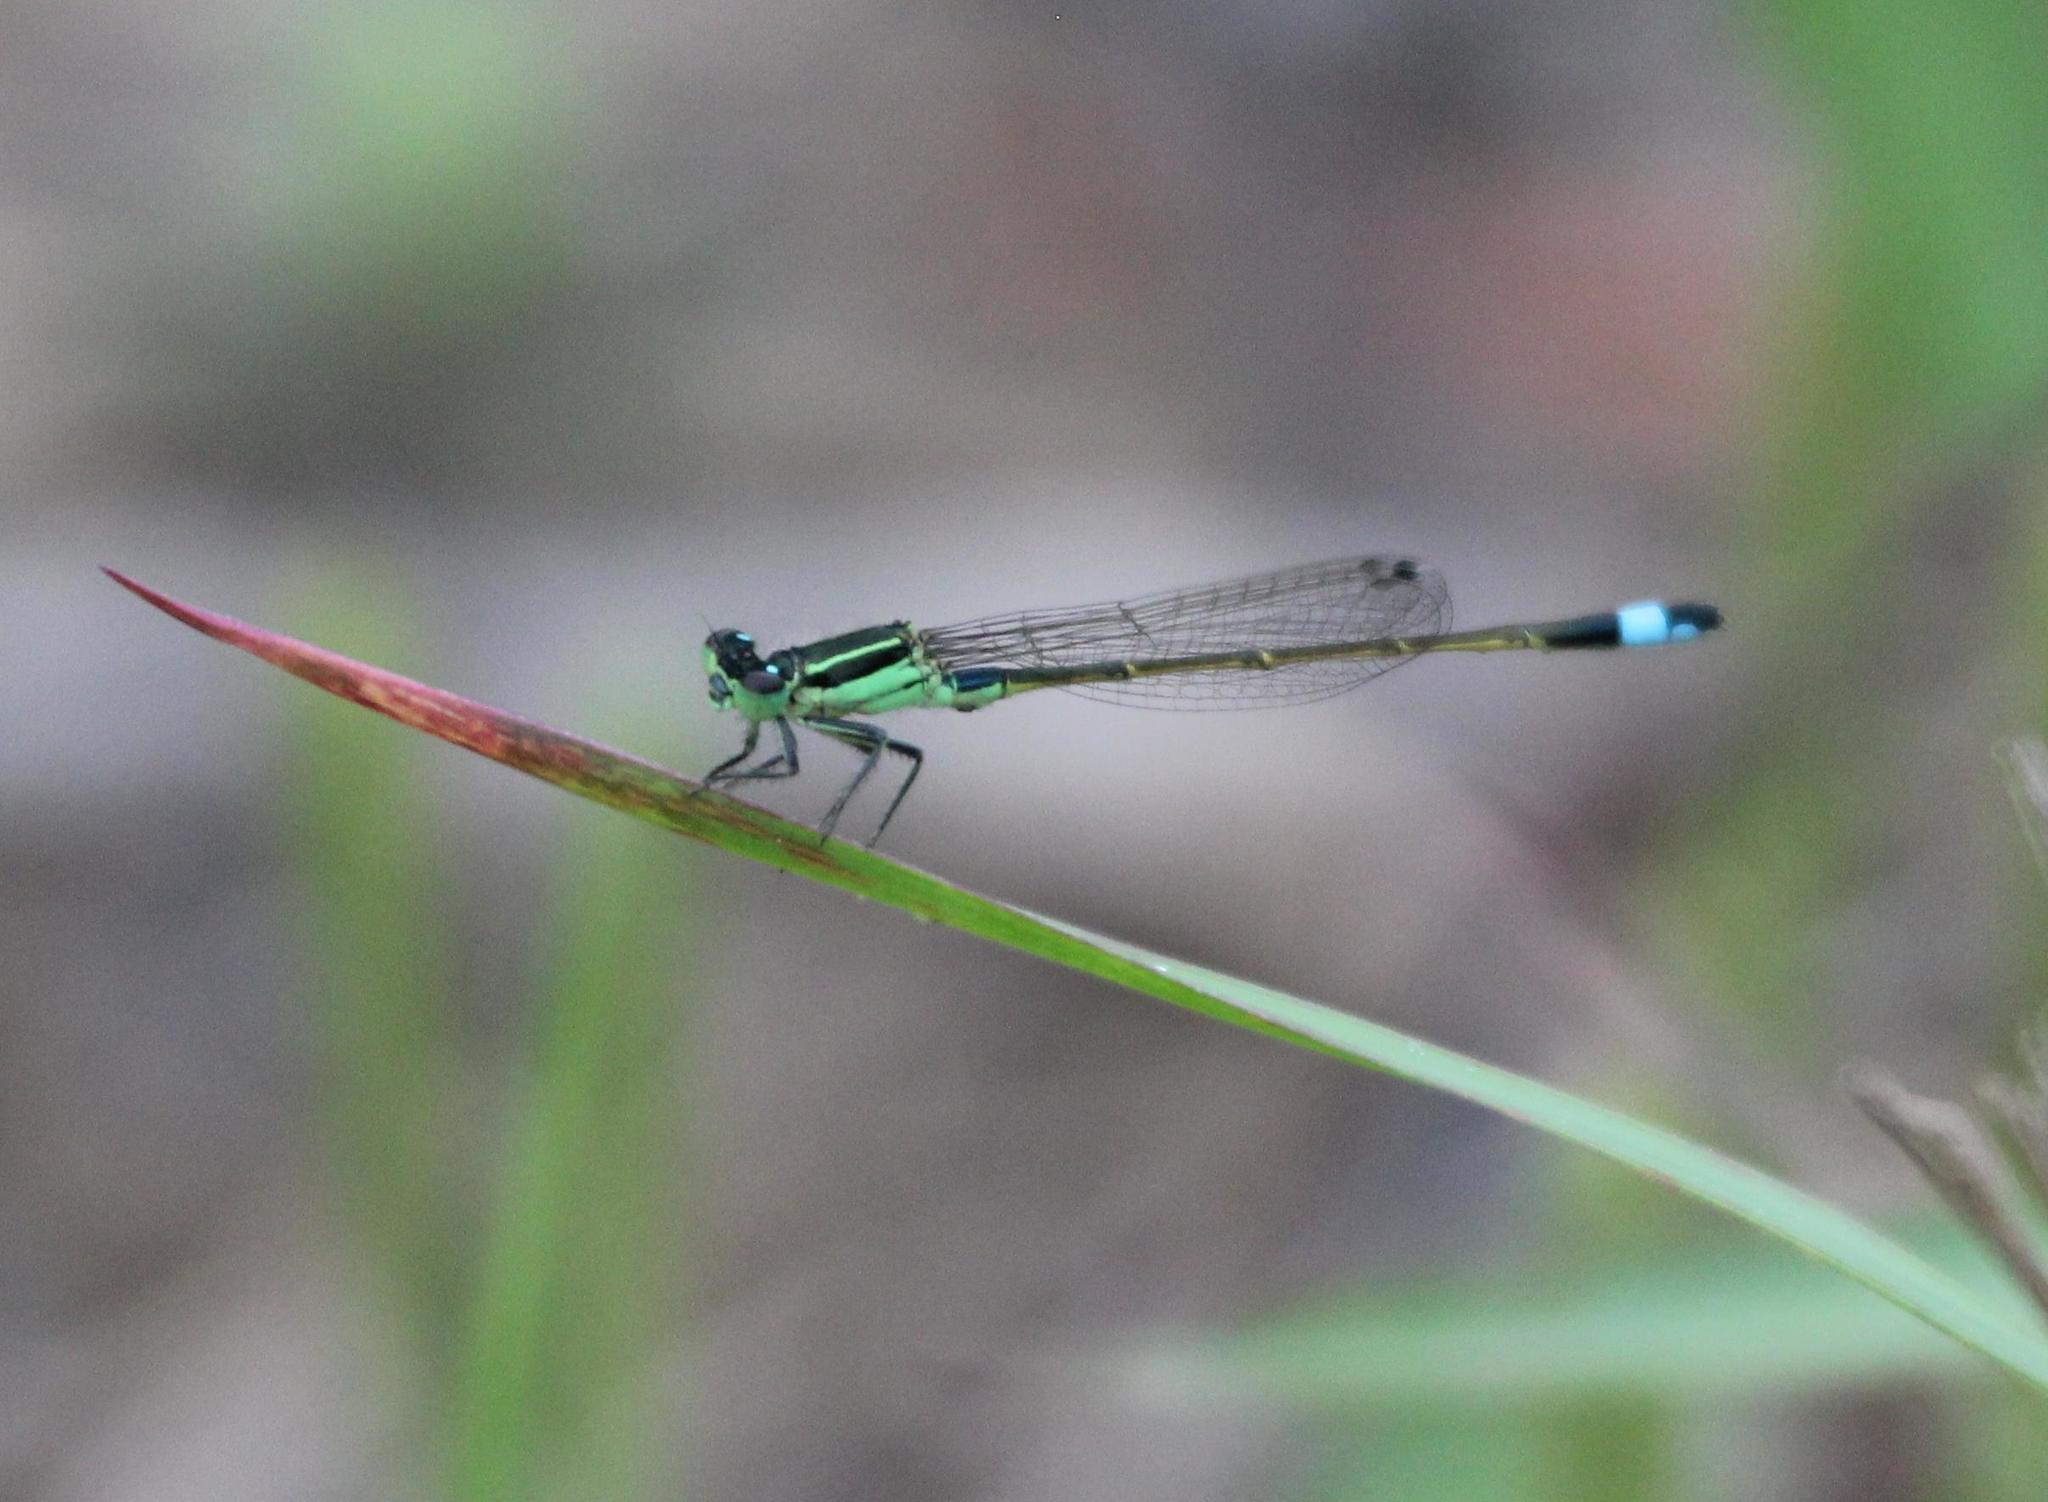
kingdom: Animalia
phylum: Arthropoda
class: Insecta
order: Odonata
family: Coenagrionidae
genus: Ischnura
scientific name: Ischnura ramburii
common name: Rambur's forktail
